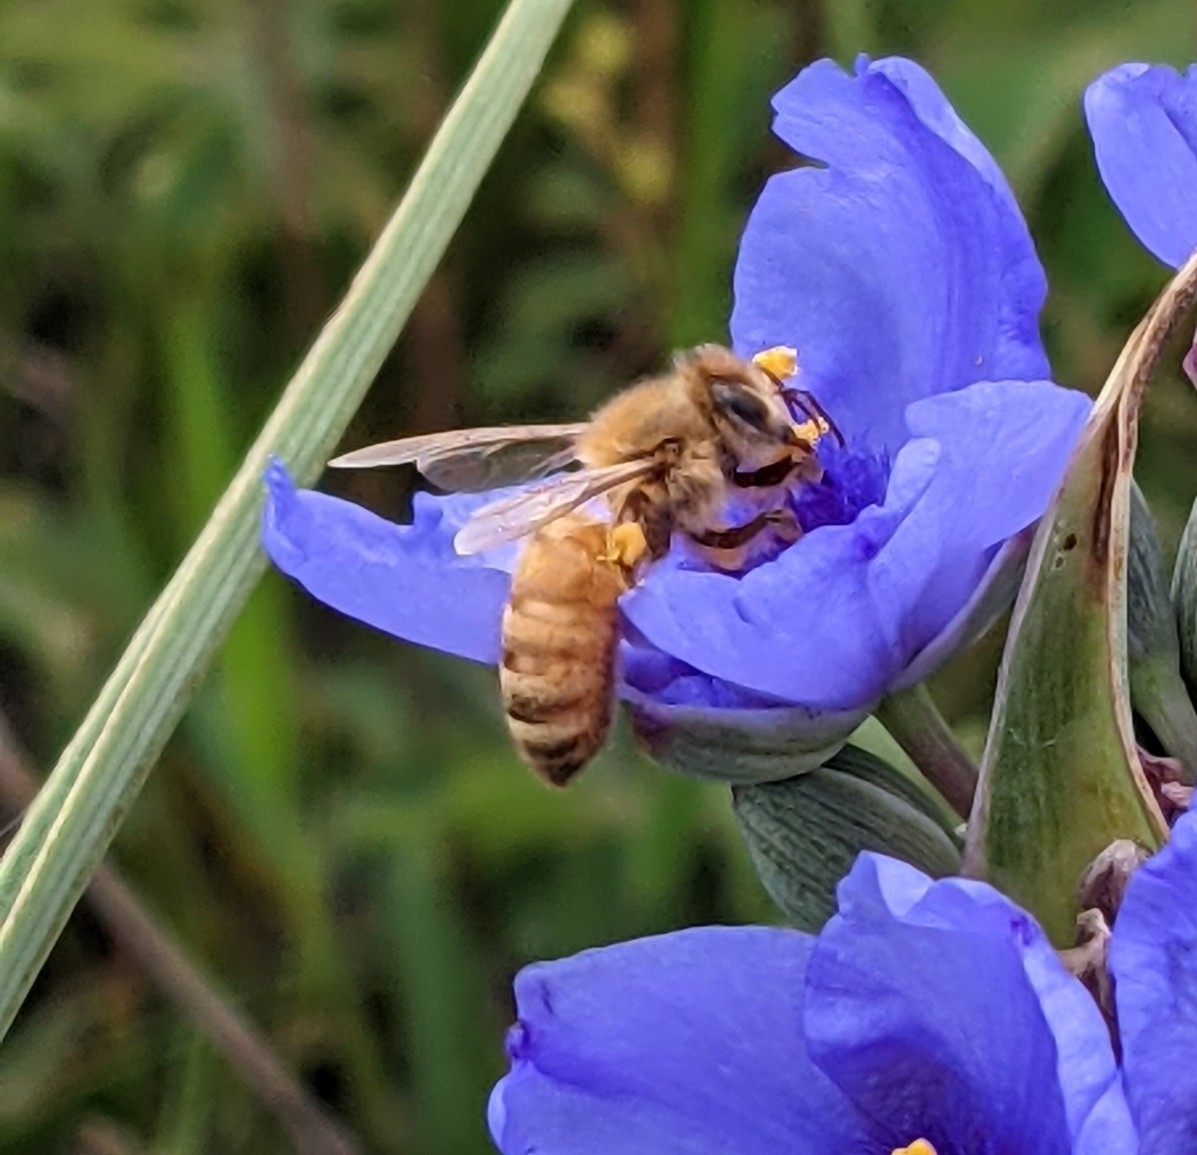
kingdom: Animalia
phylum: Arthropoda
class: Insecta
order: Hymenoptera
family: Apidae
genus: Apis
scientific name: Apis mellifera
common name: Honey bee
